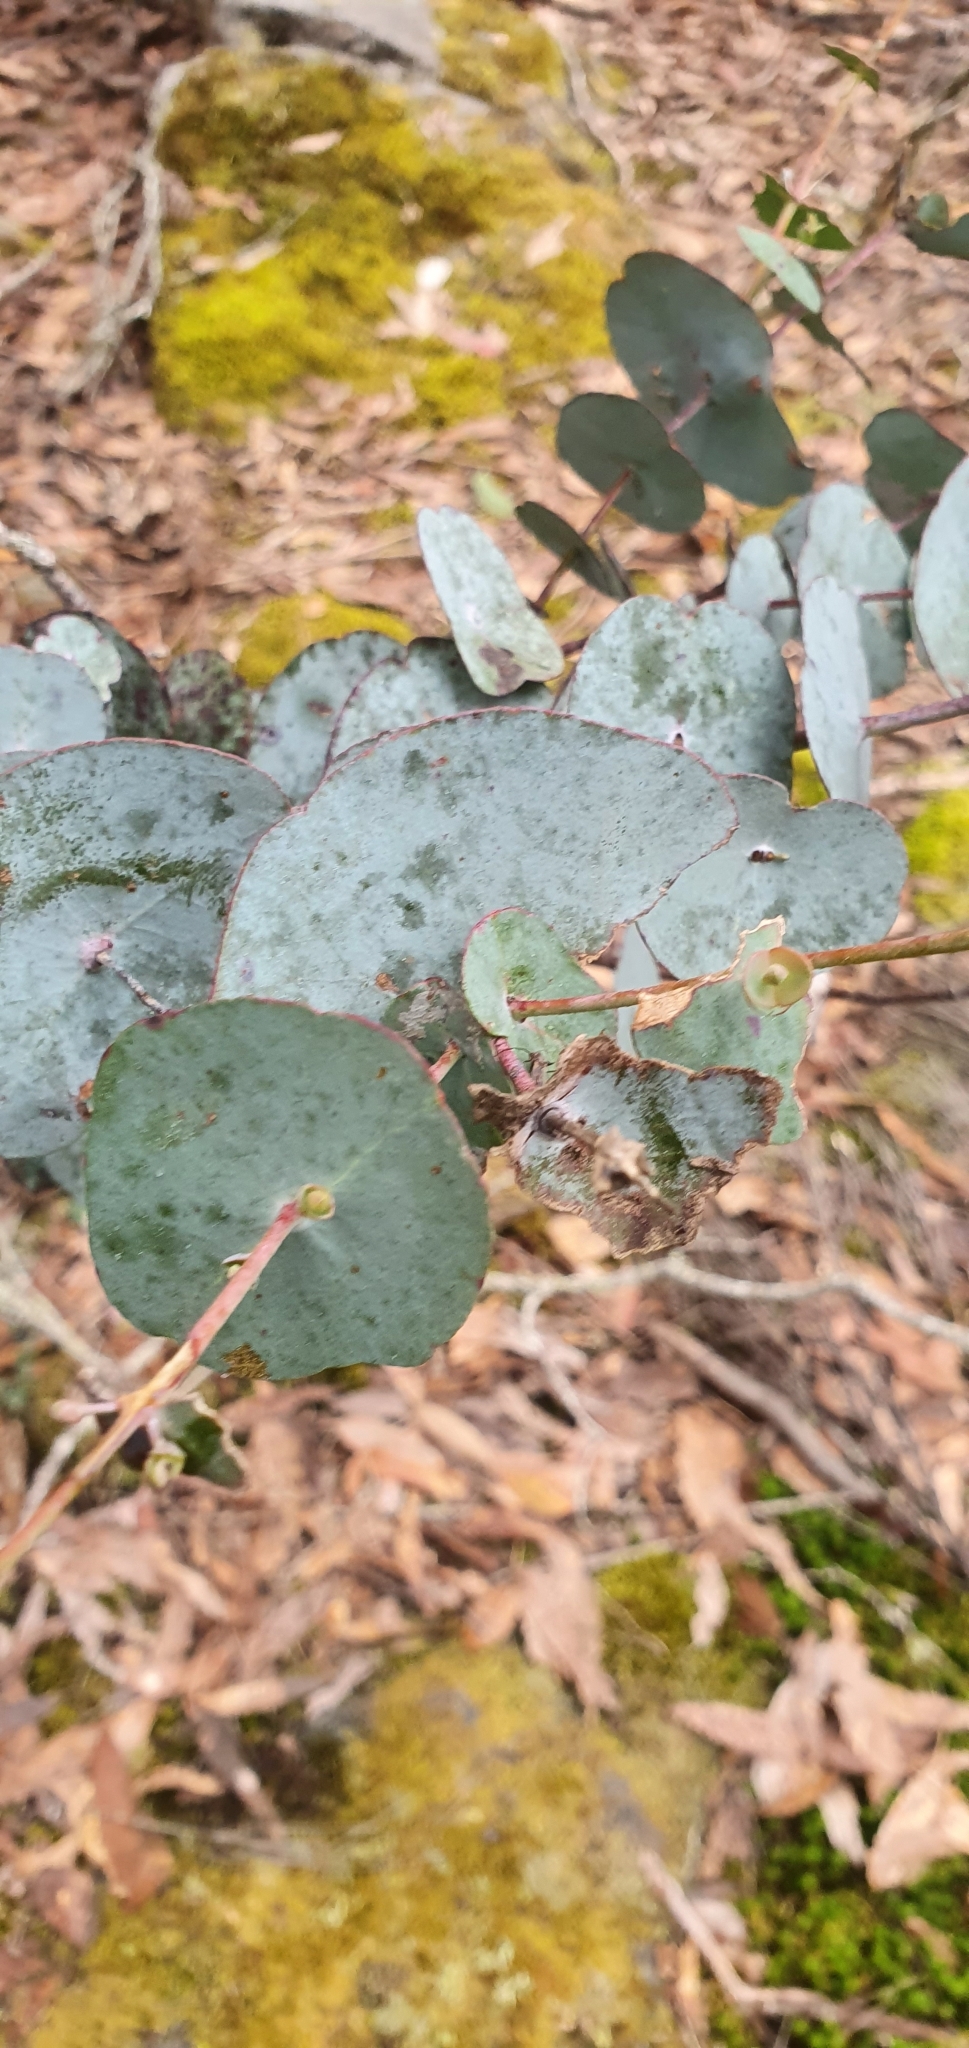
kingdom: Plantae
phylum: Tracheophyta
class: Magnoliopsida
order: Myrtales
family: Myrtaceae
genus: Eucalyptus
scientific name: Eucalyptus perriniana
